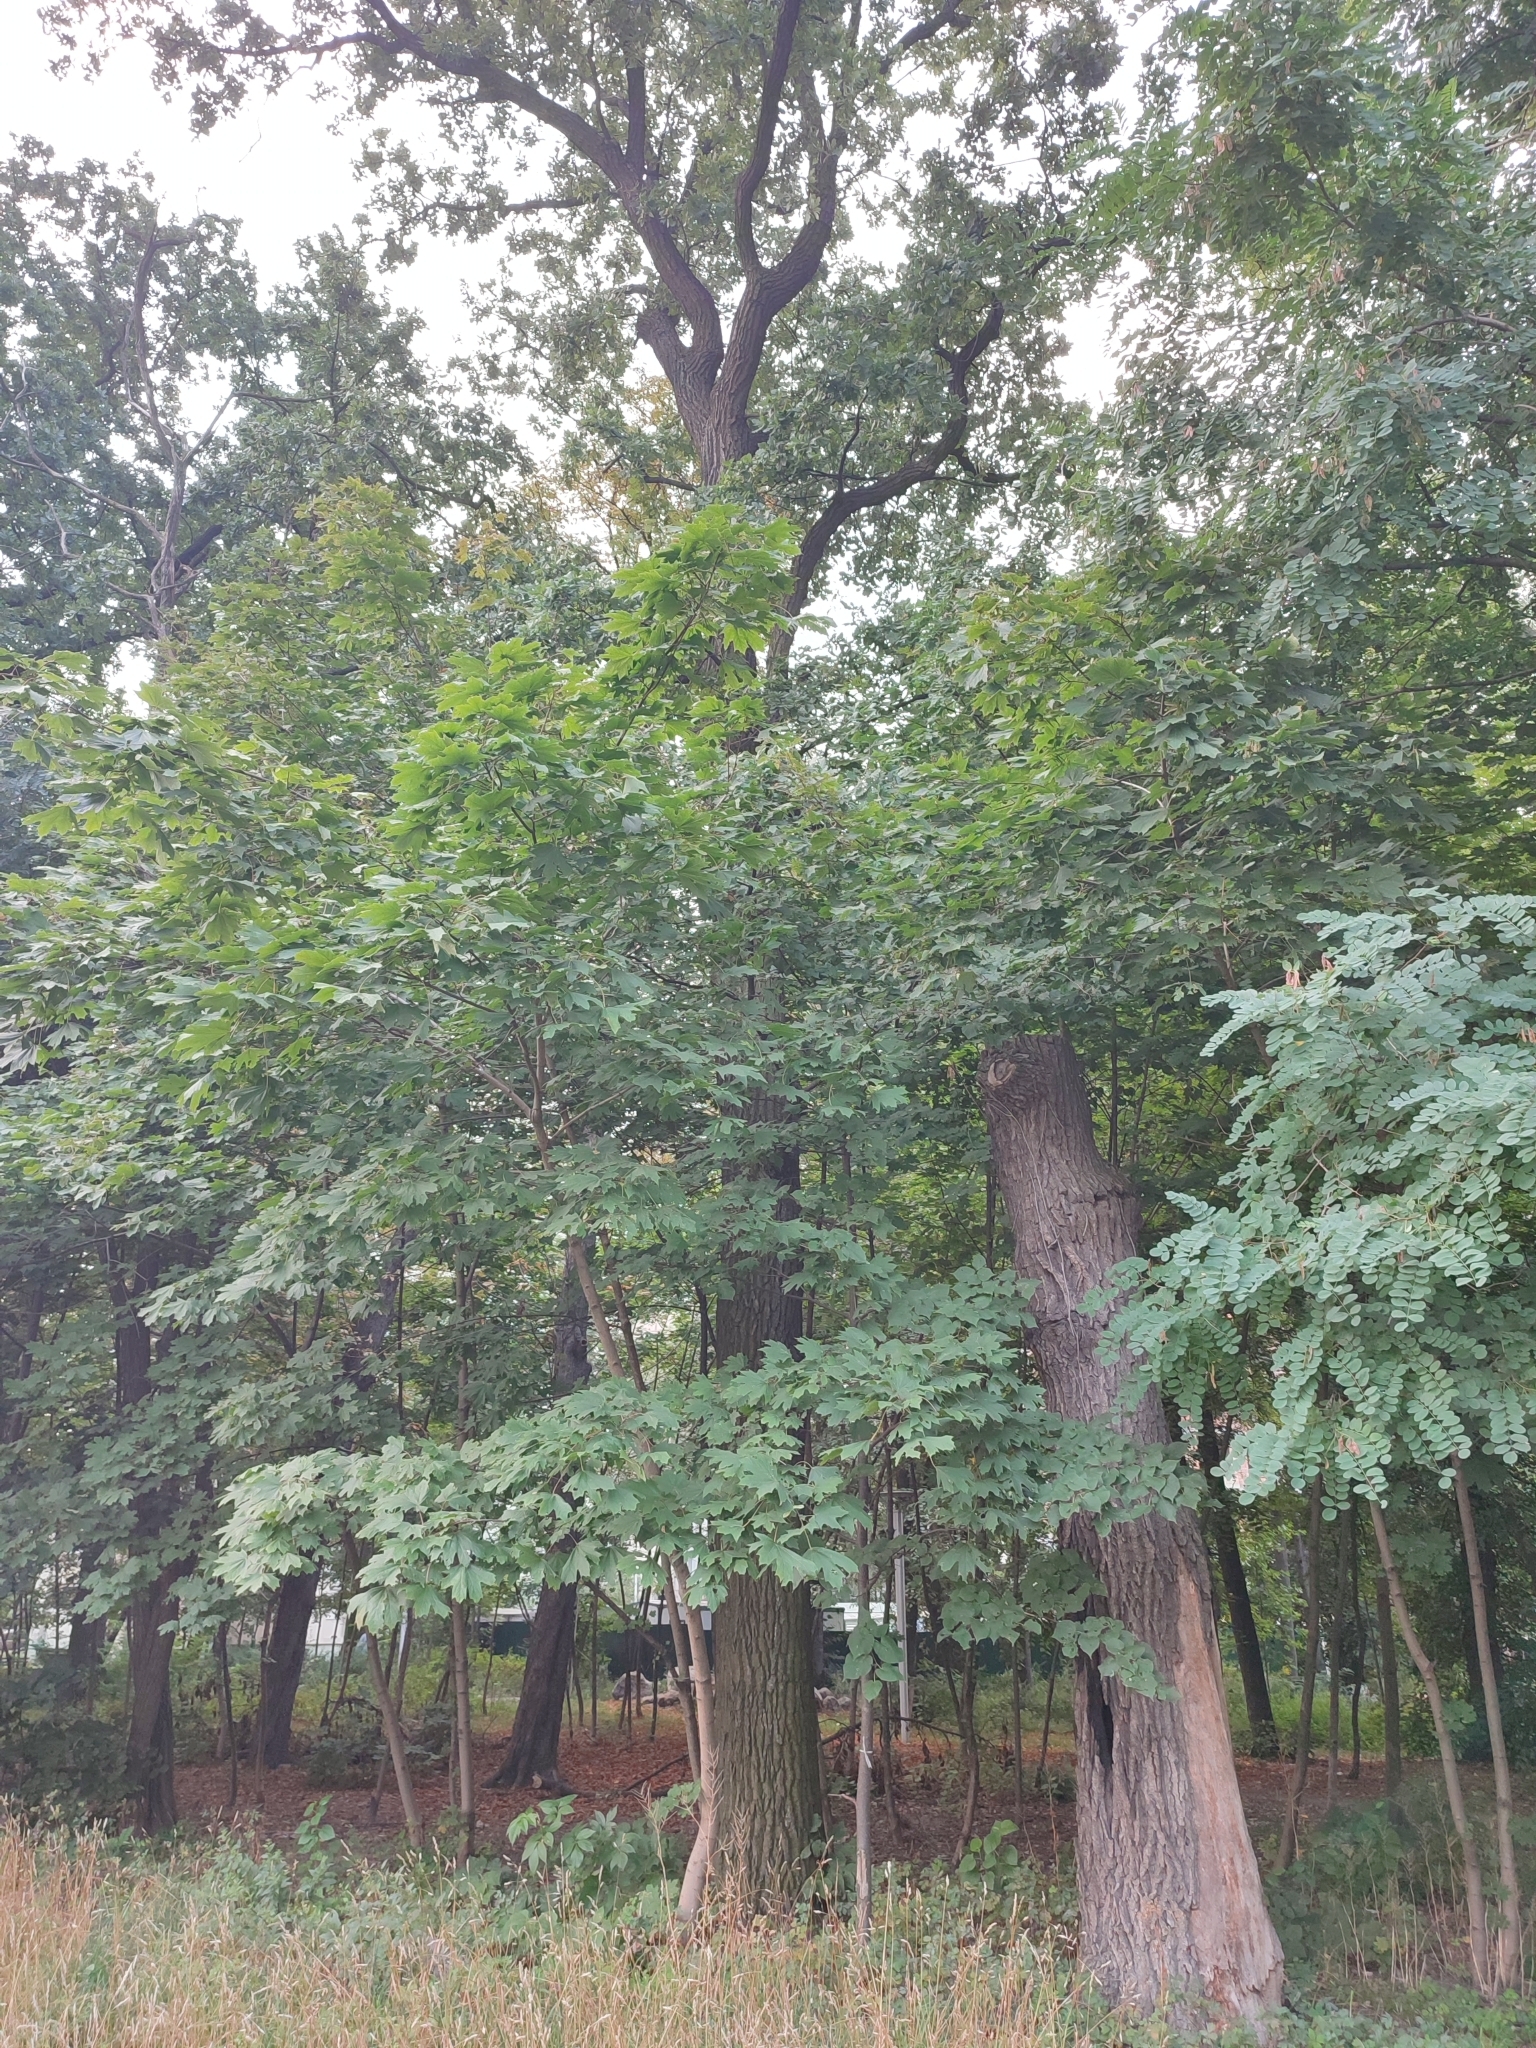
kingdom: Plantae
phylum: Tracheophyta
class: Magnoliopsida
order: Fagales
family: Fagaceae
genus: Quercus
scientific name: Quercus robur
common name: Pedunculate oak
